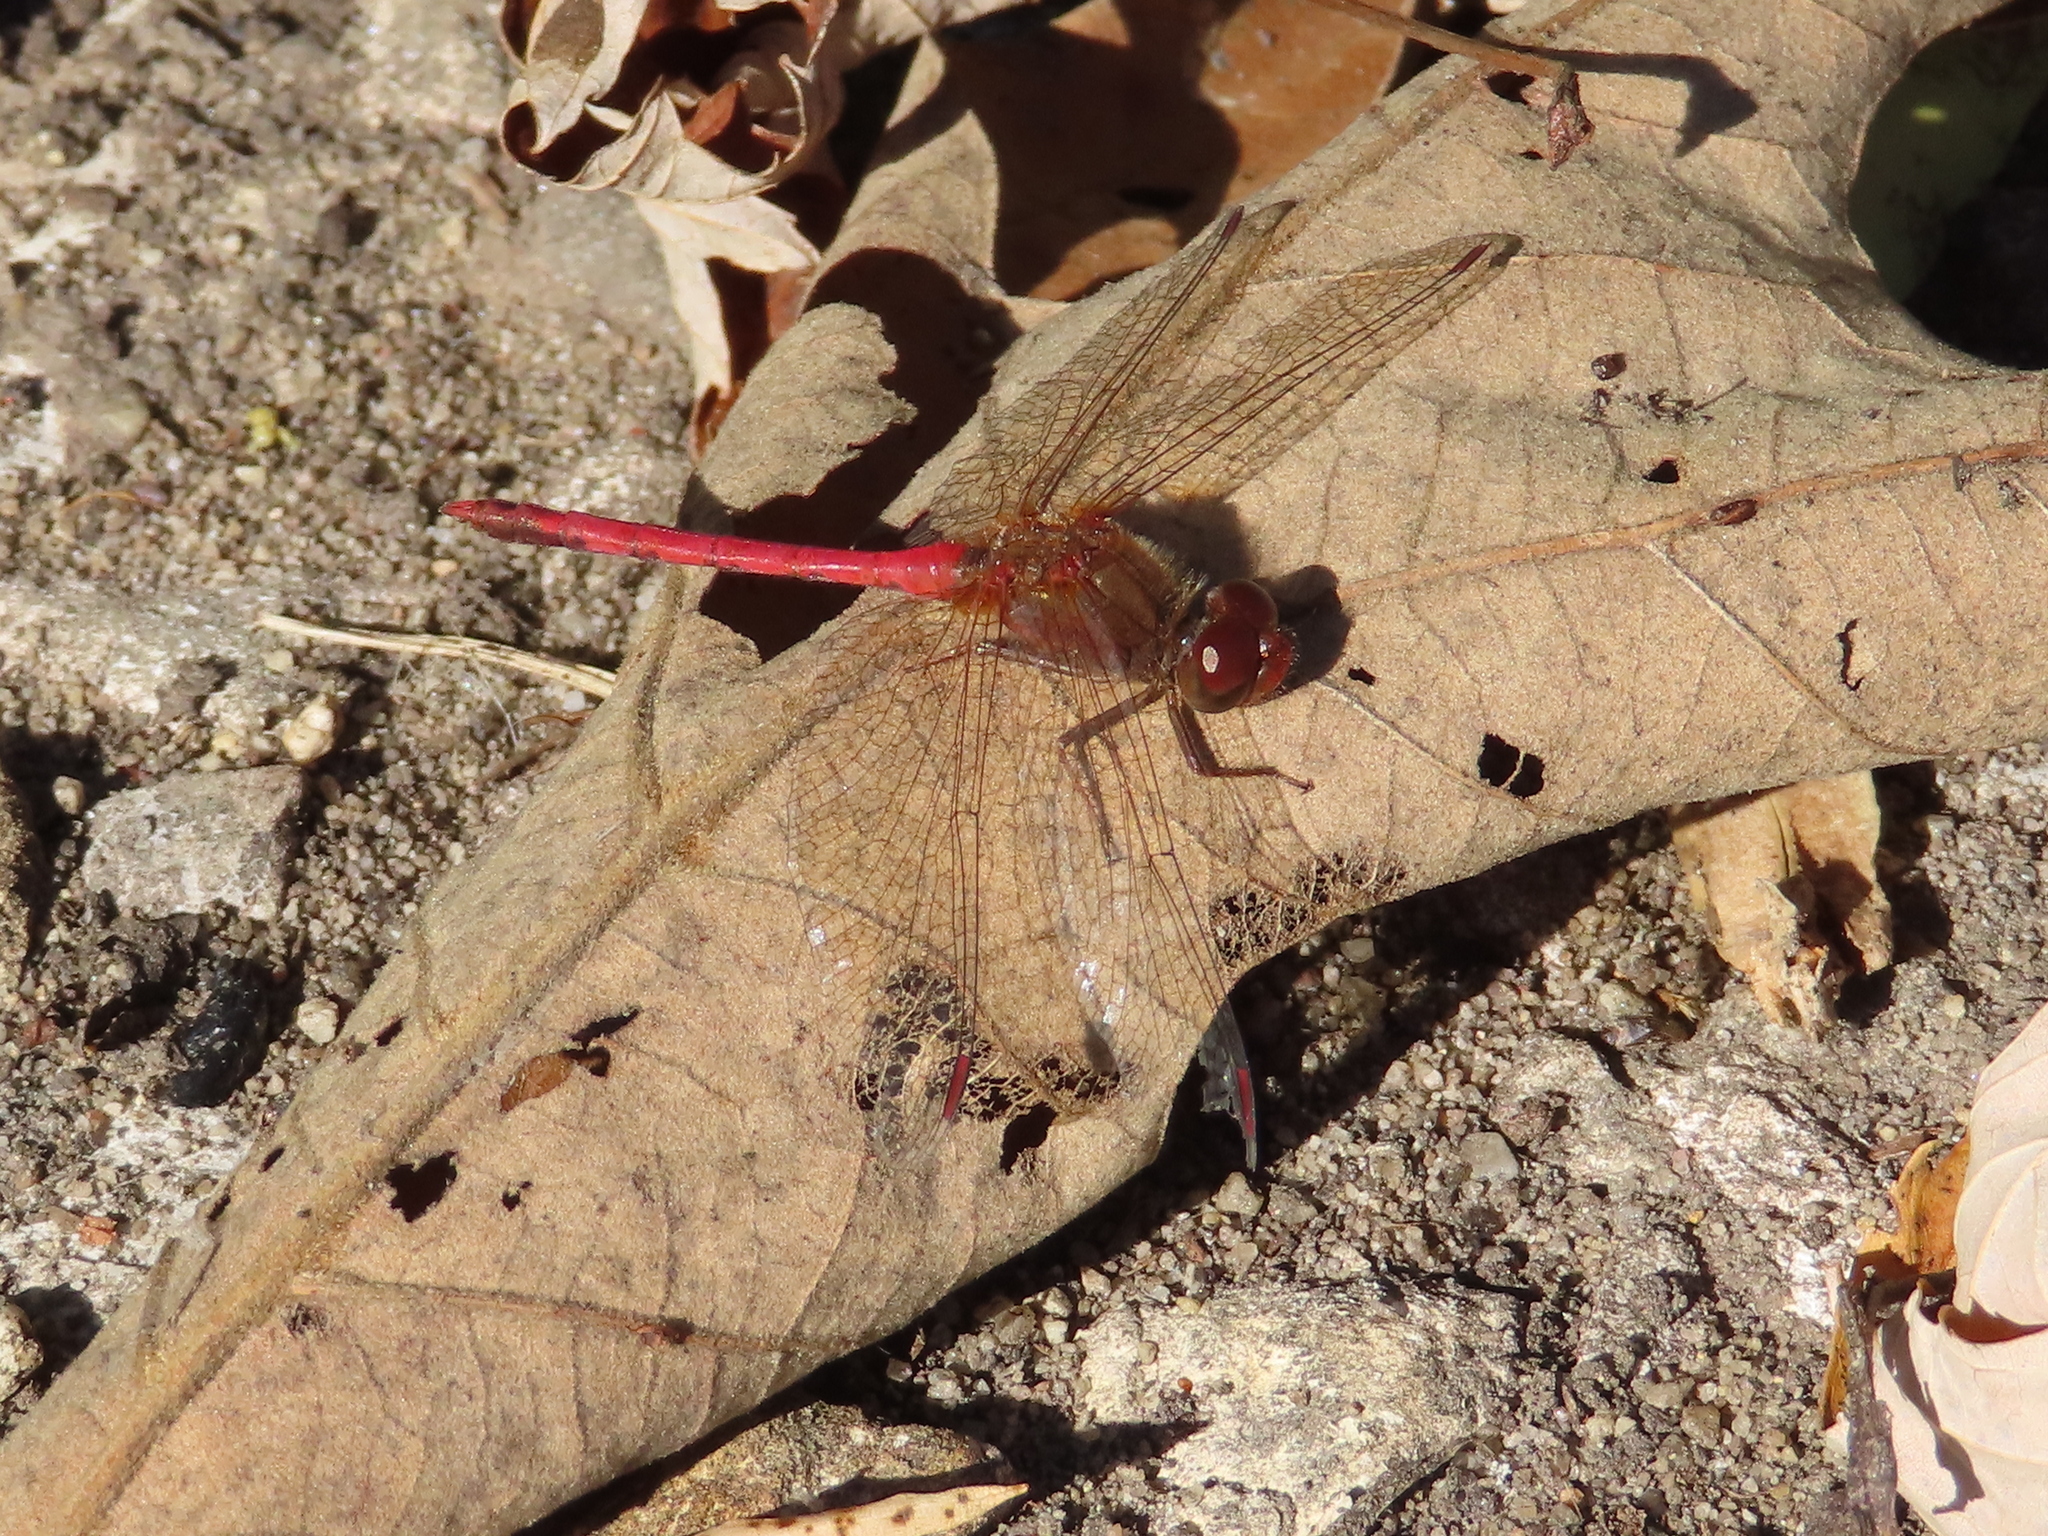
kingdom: Animalia
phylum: Arthropoda
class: Insecta
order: Odonata
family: Libellulidae
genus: Sympetrum
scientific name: Sympetrum vicinum
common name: Autumn meadowhawk
